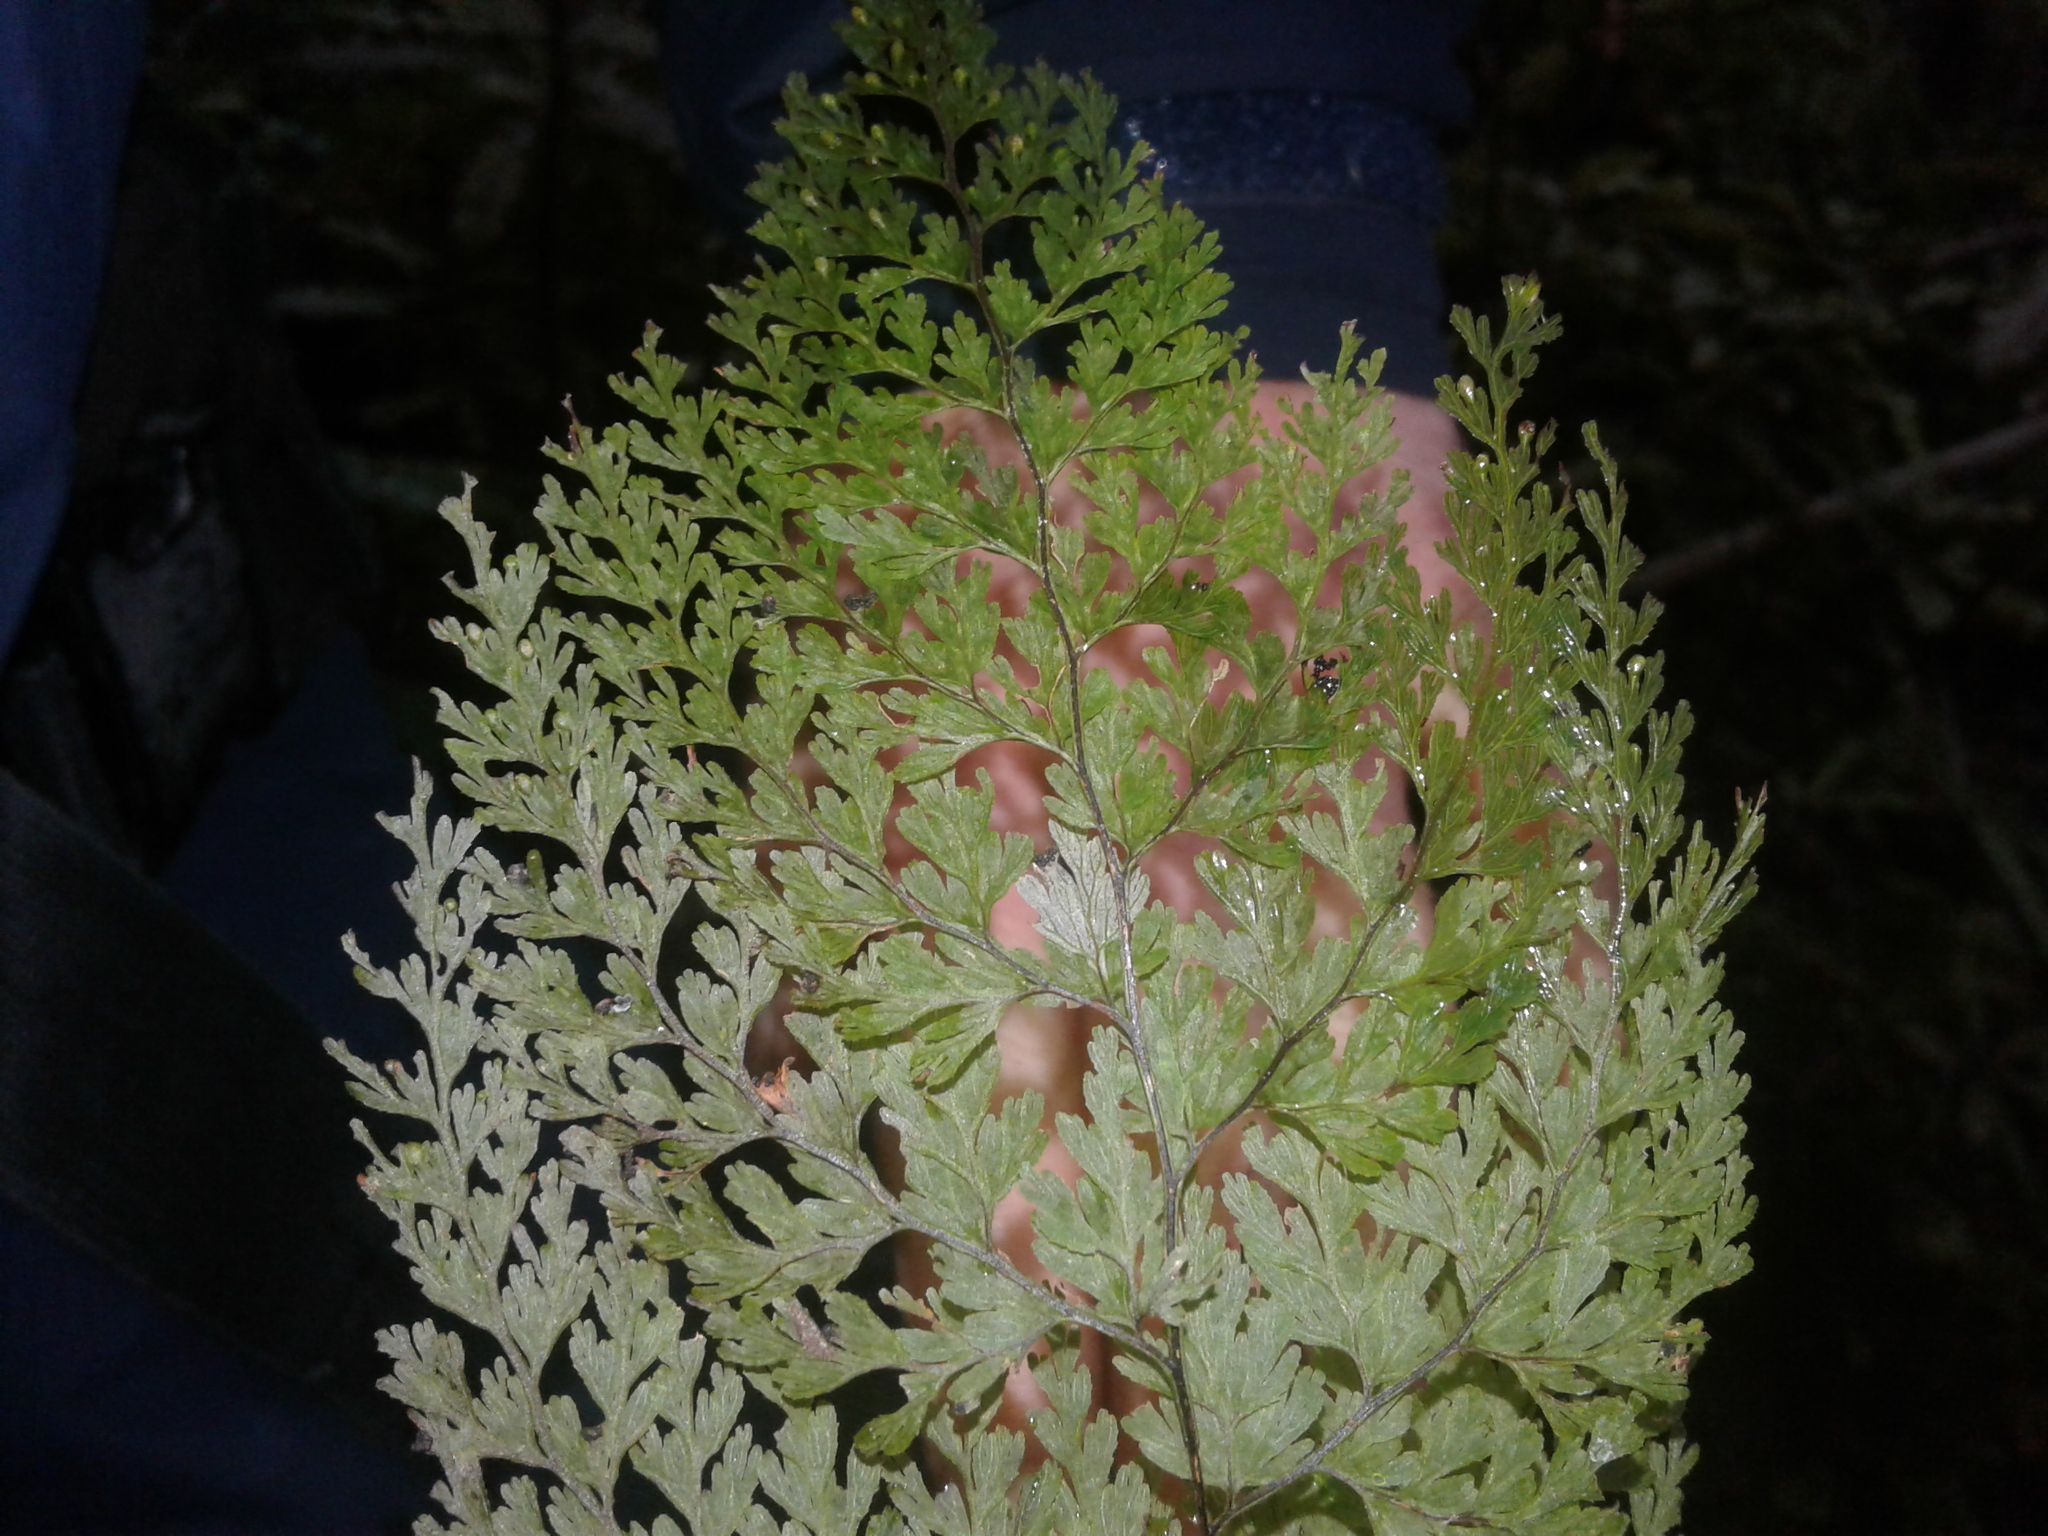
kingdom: Plantae
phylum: Tracheophyta
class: Polypodiopsida
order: Hymenophyllales
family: Hymenophyllaceae
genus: Hymenophyllum
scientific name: Hymenophyllum bivalve
